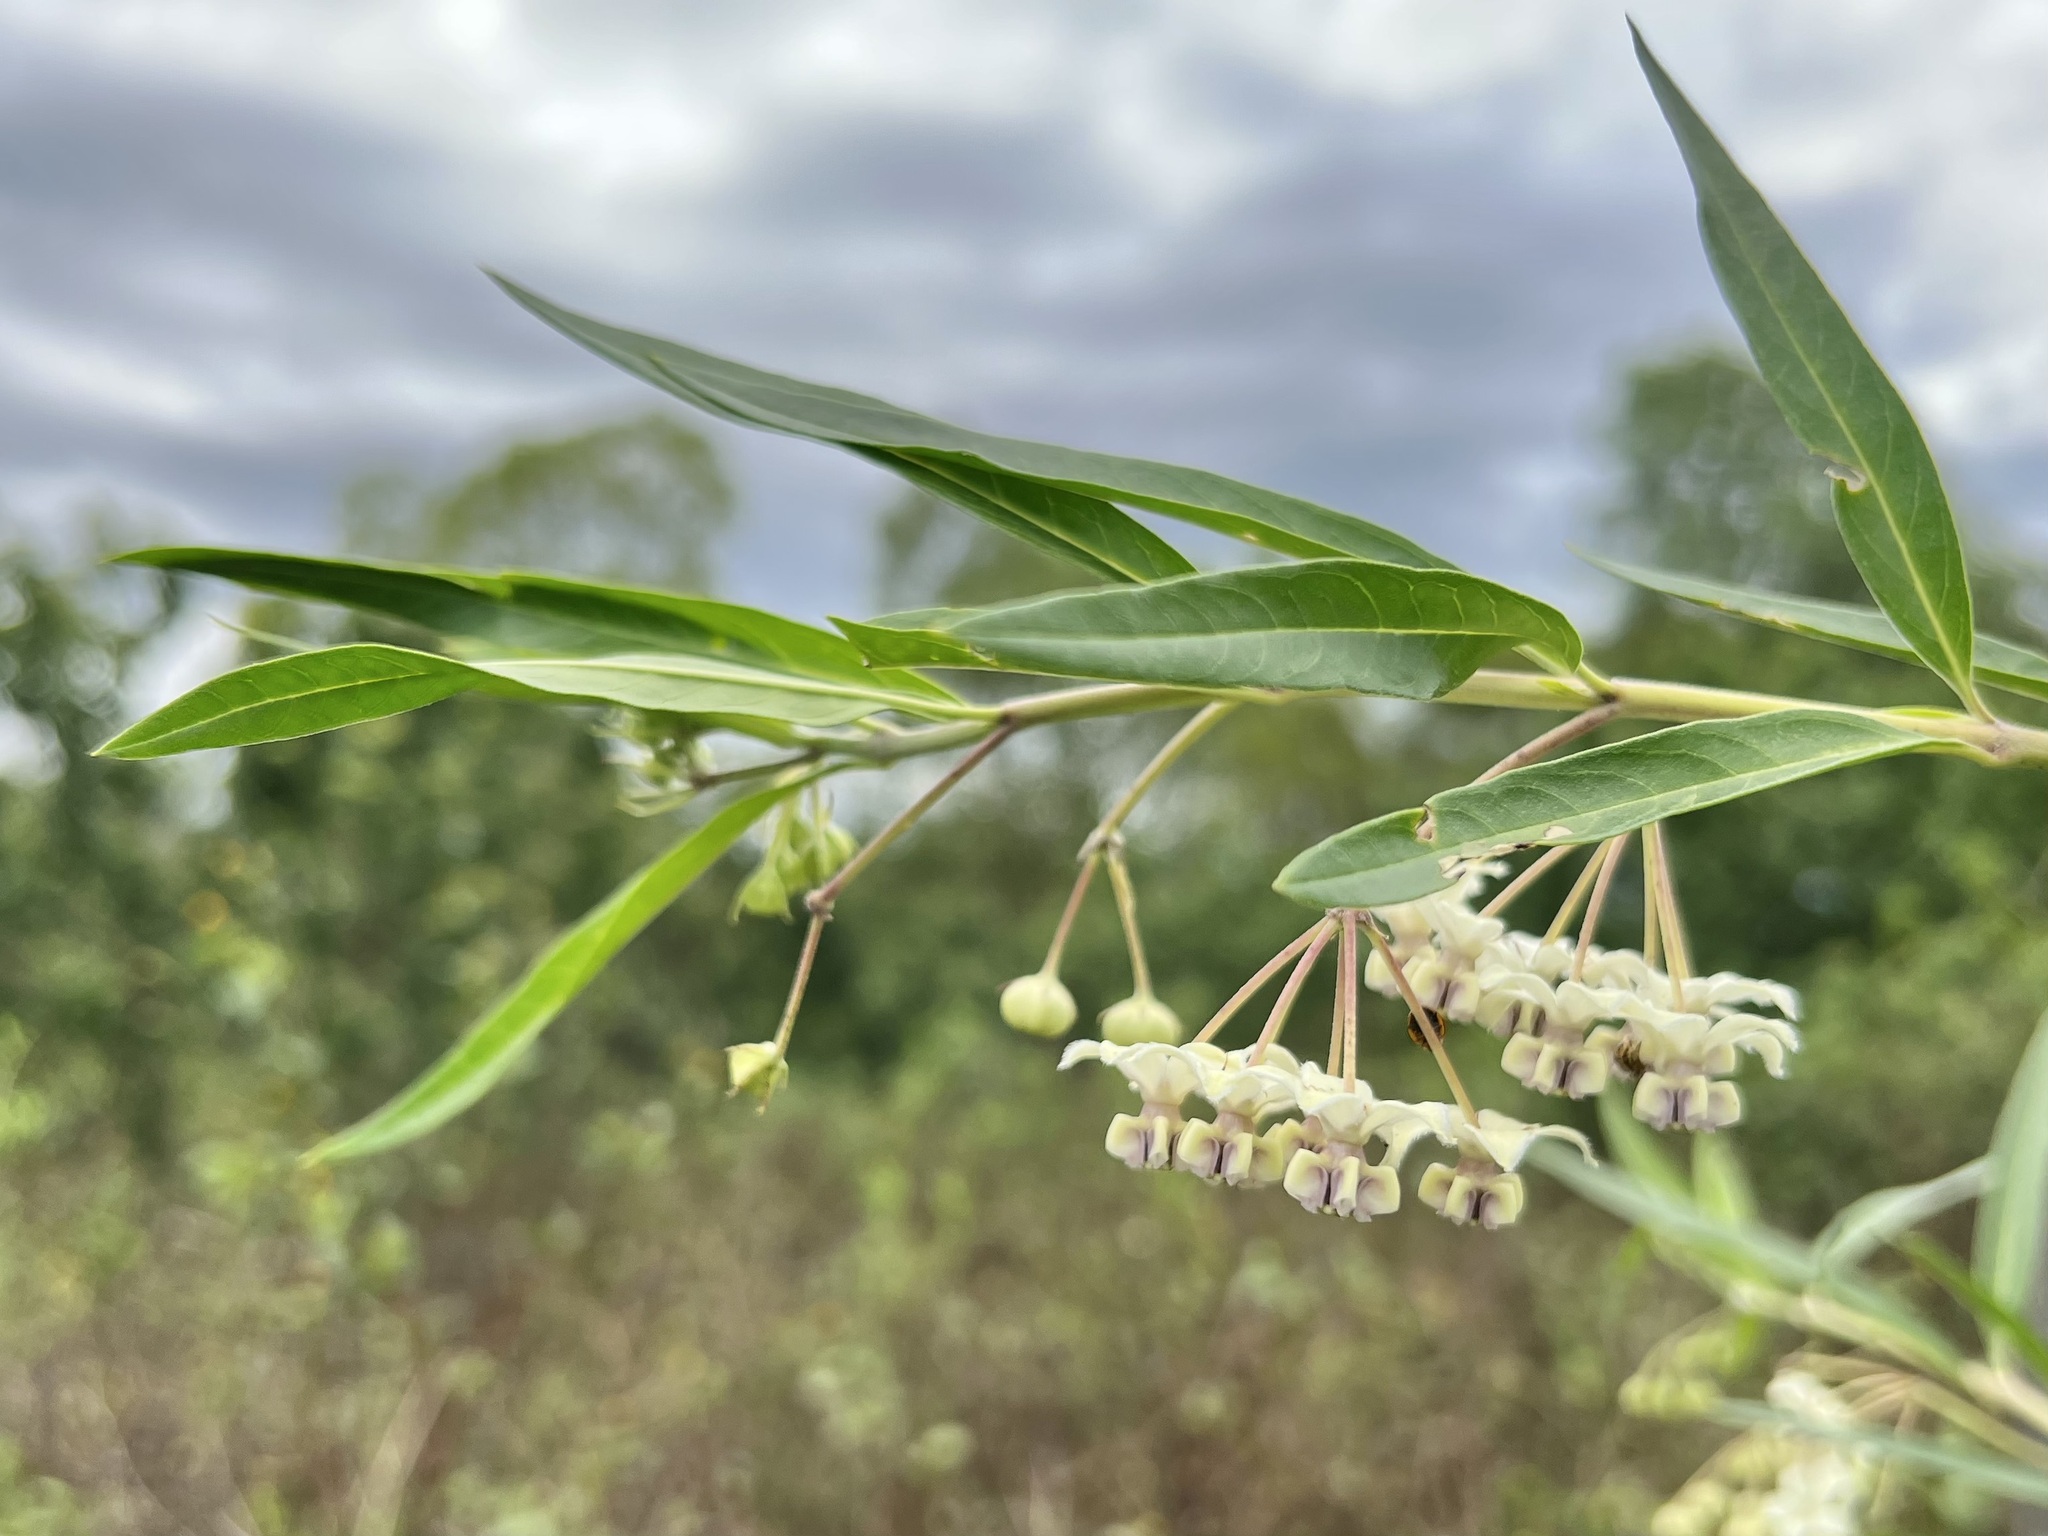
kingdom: Plantae
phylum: Tracheophyta
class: Magnoliopsida
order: Gentianales
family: Apocynaceae
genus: Gomphocarpus
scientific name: Gomphocarpus physocarpus
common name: Balloon cotton bush
